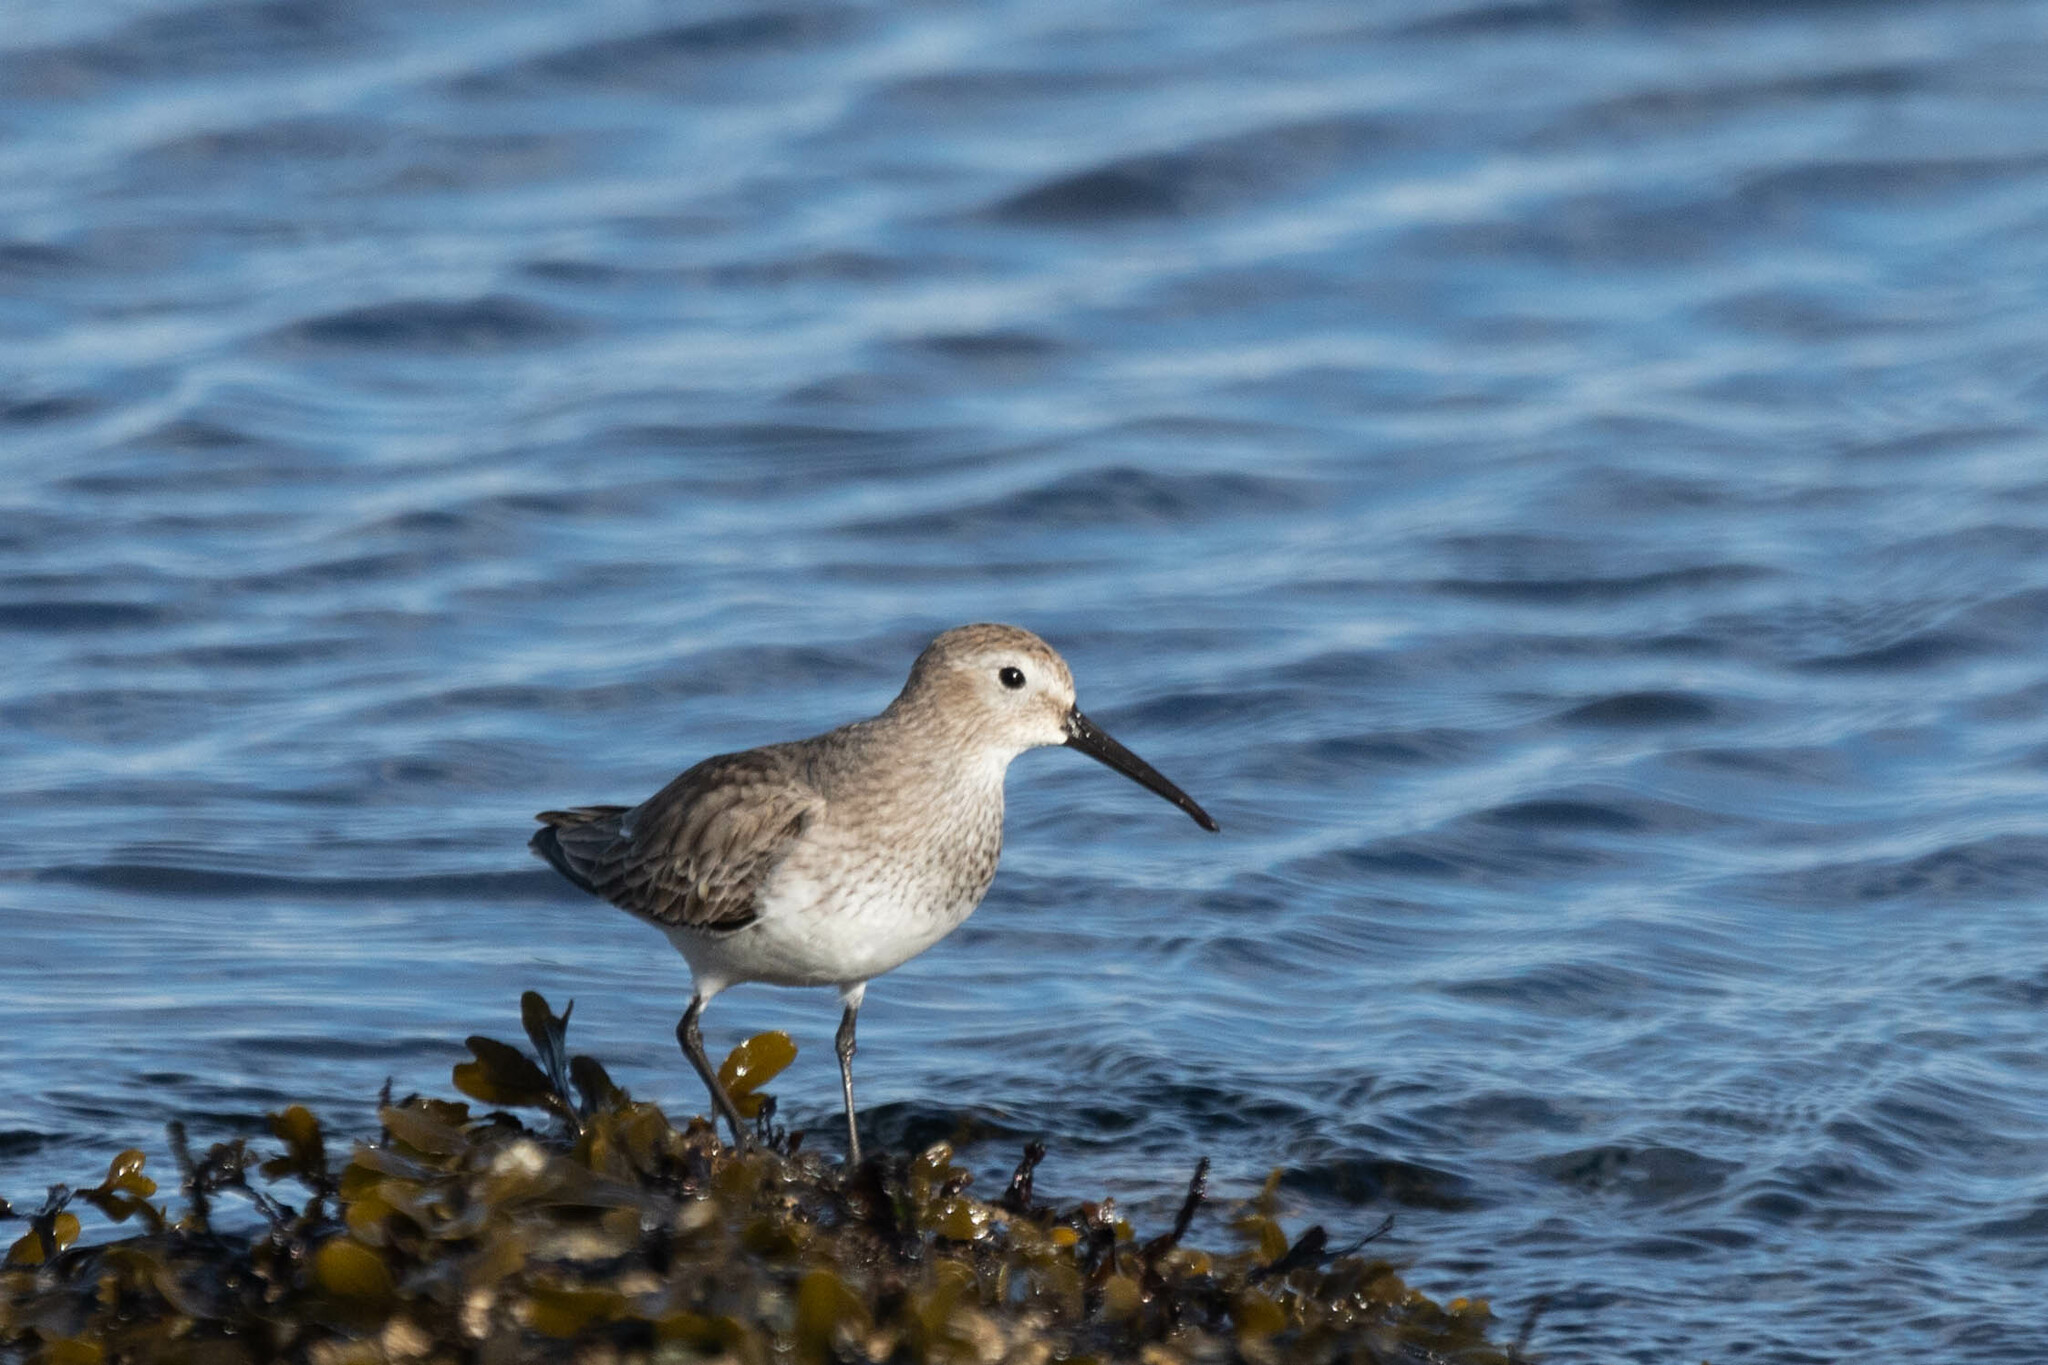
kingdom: Animalia
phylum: Chordata
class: Aves
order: Charadriiformes
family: Scolopacidae
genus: Calidris
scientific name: Calidris alpina
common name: Dunlin
